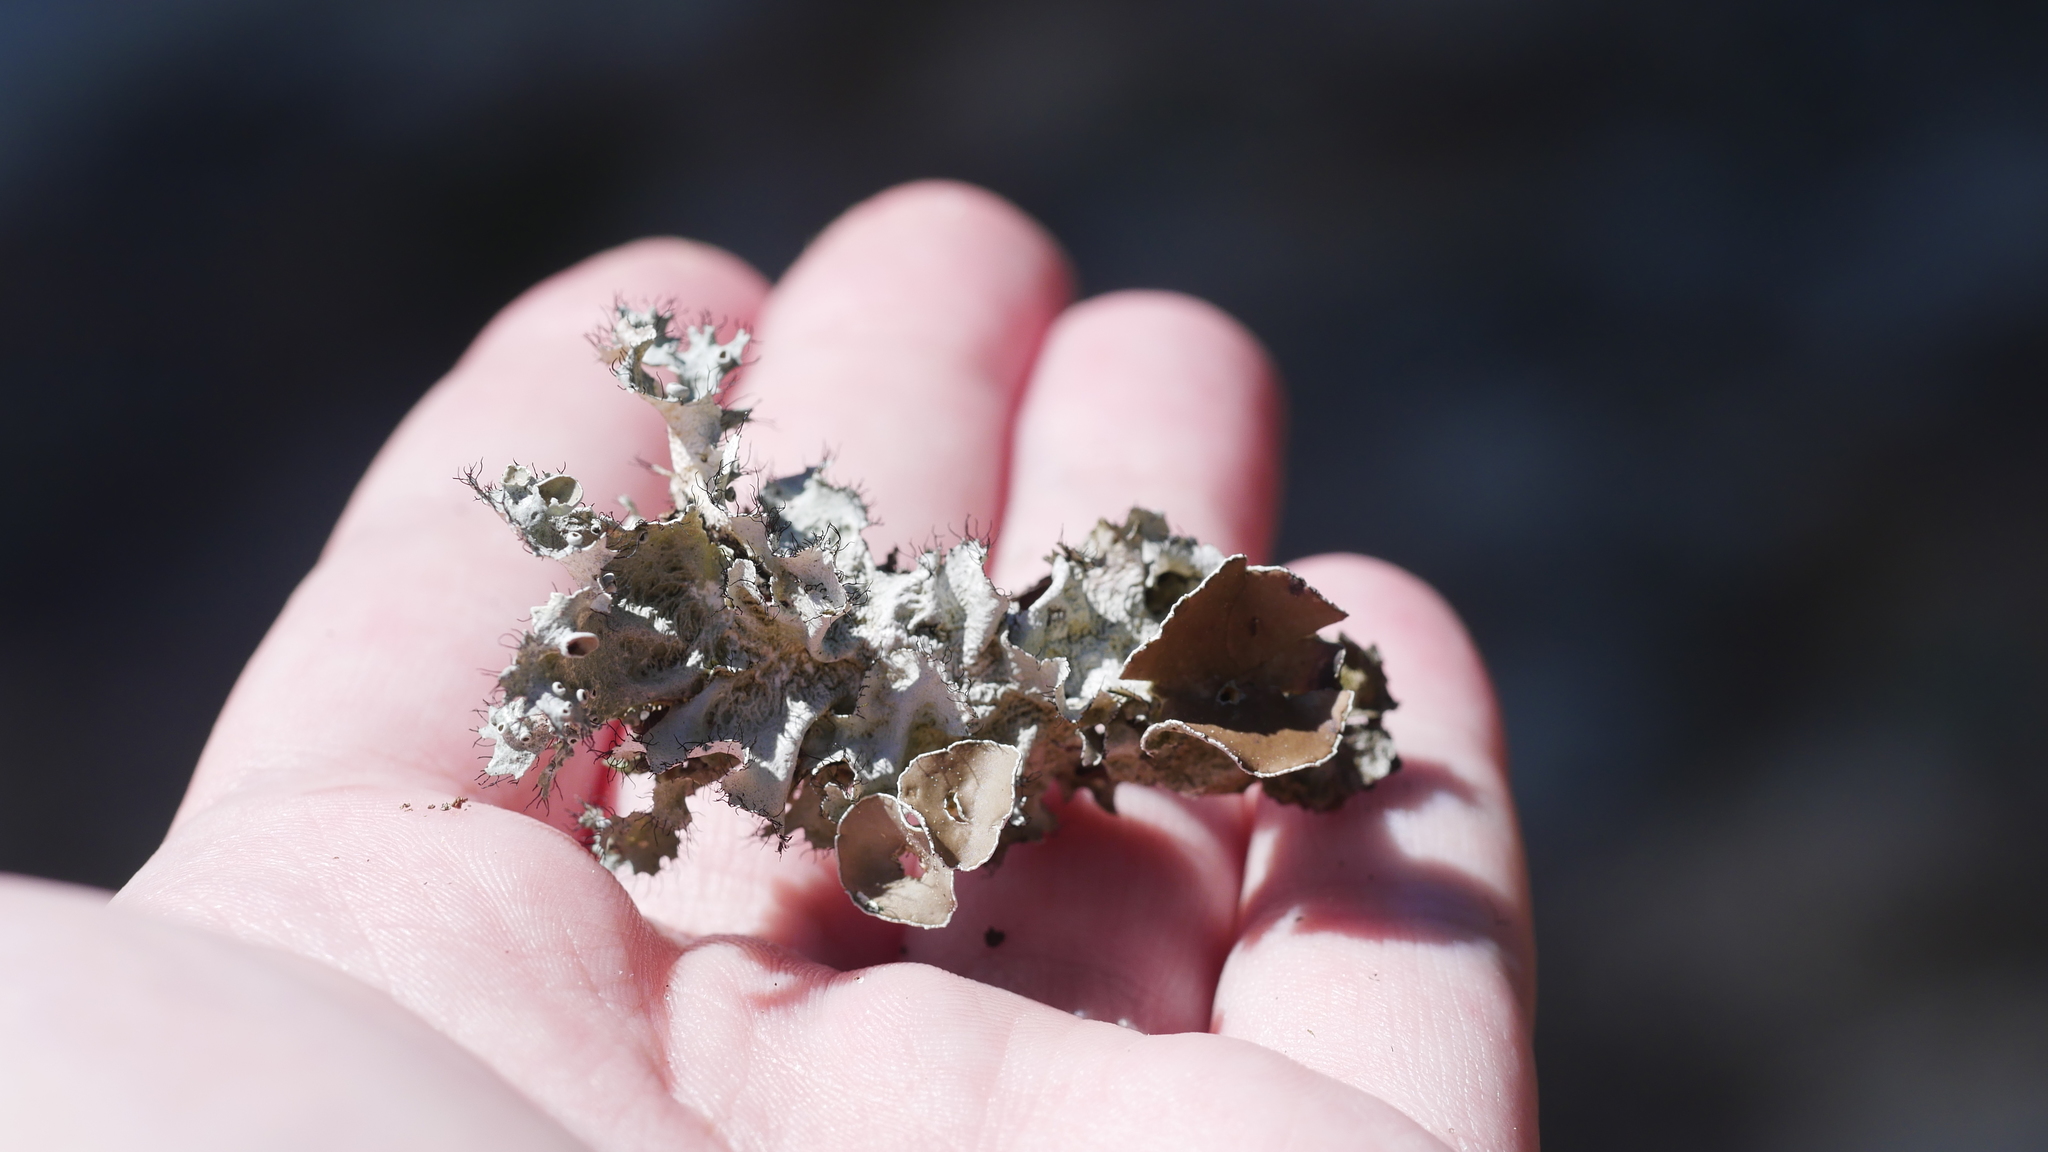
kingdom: Fungi
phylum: Ascomycota
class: Lecanoromycetes
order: Lecanorales
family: Parmeliaceae
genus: Parmotrema
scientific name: Parmotrema perforatum
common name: Perforated ruffle lichen
